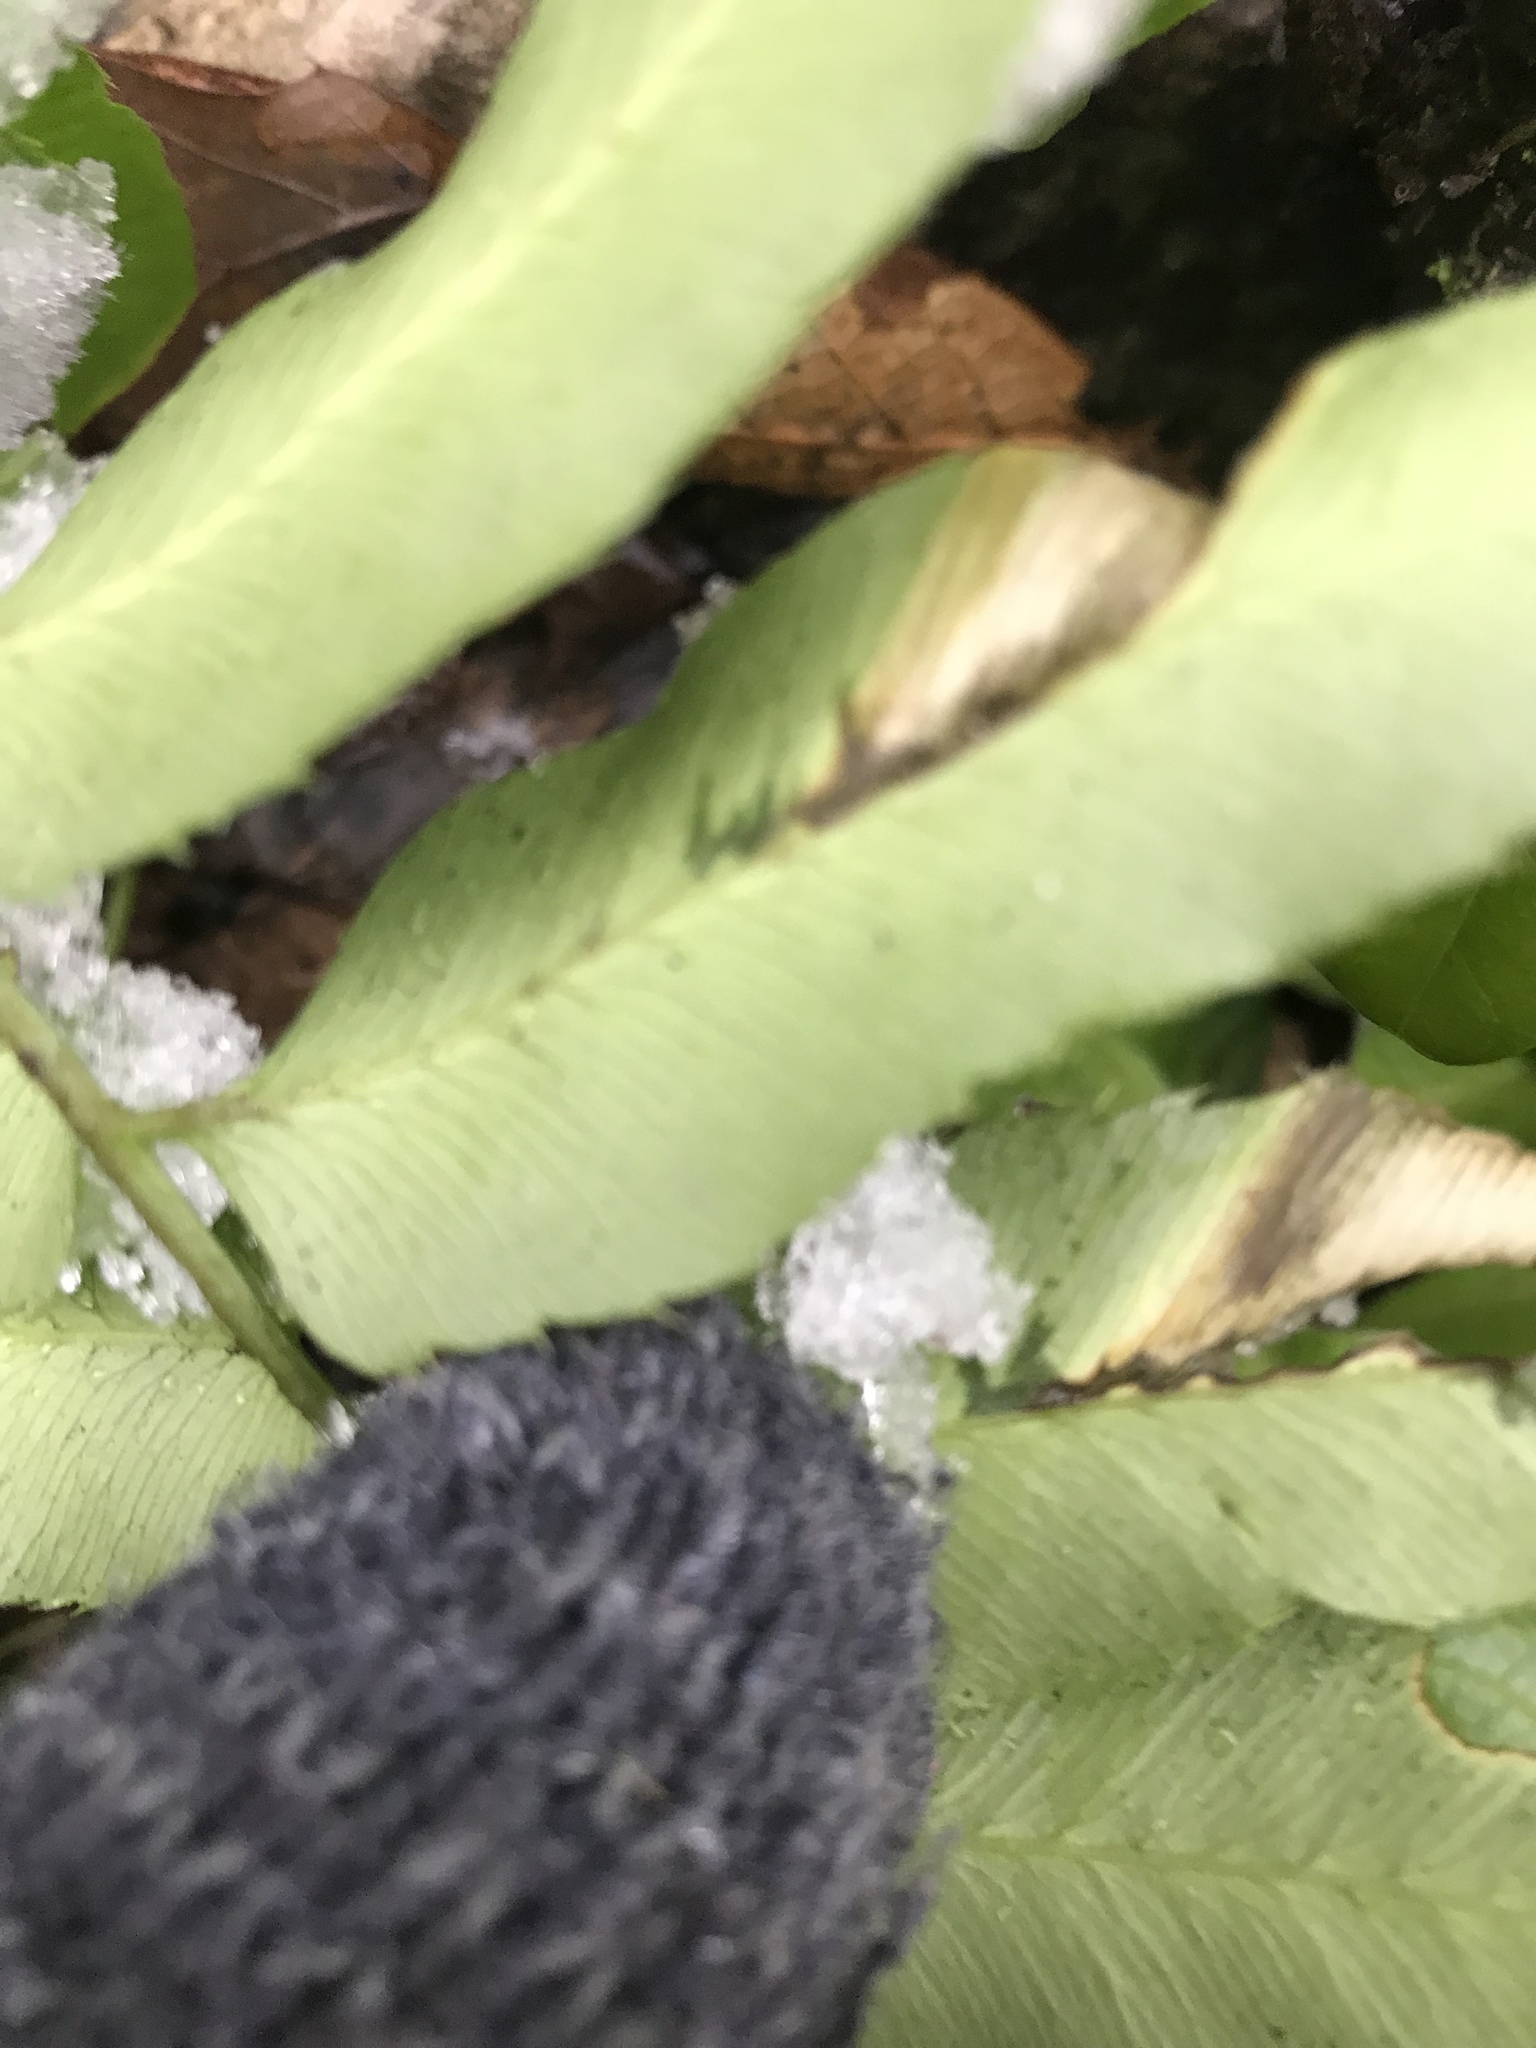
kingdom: Plantae
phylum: Tracheophyta
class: Polypodiopsida
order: Polypodiales
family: Dryopteridaceae
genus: Phanerophlebia
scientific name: Phanerophlebia umbonata
